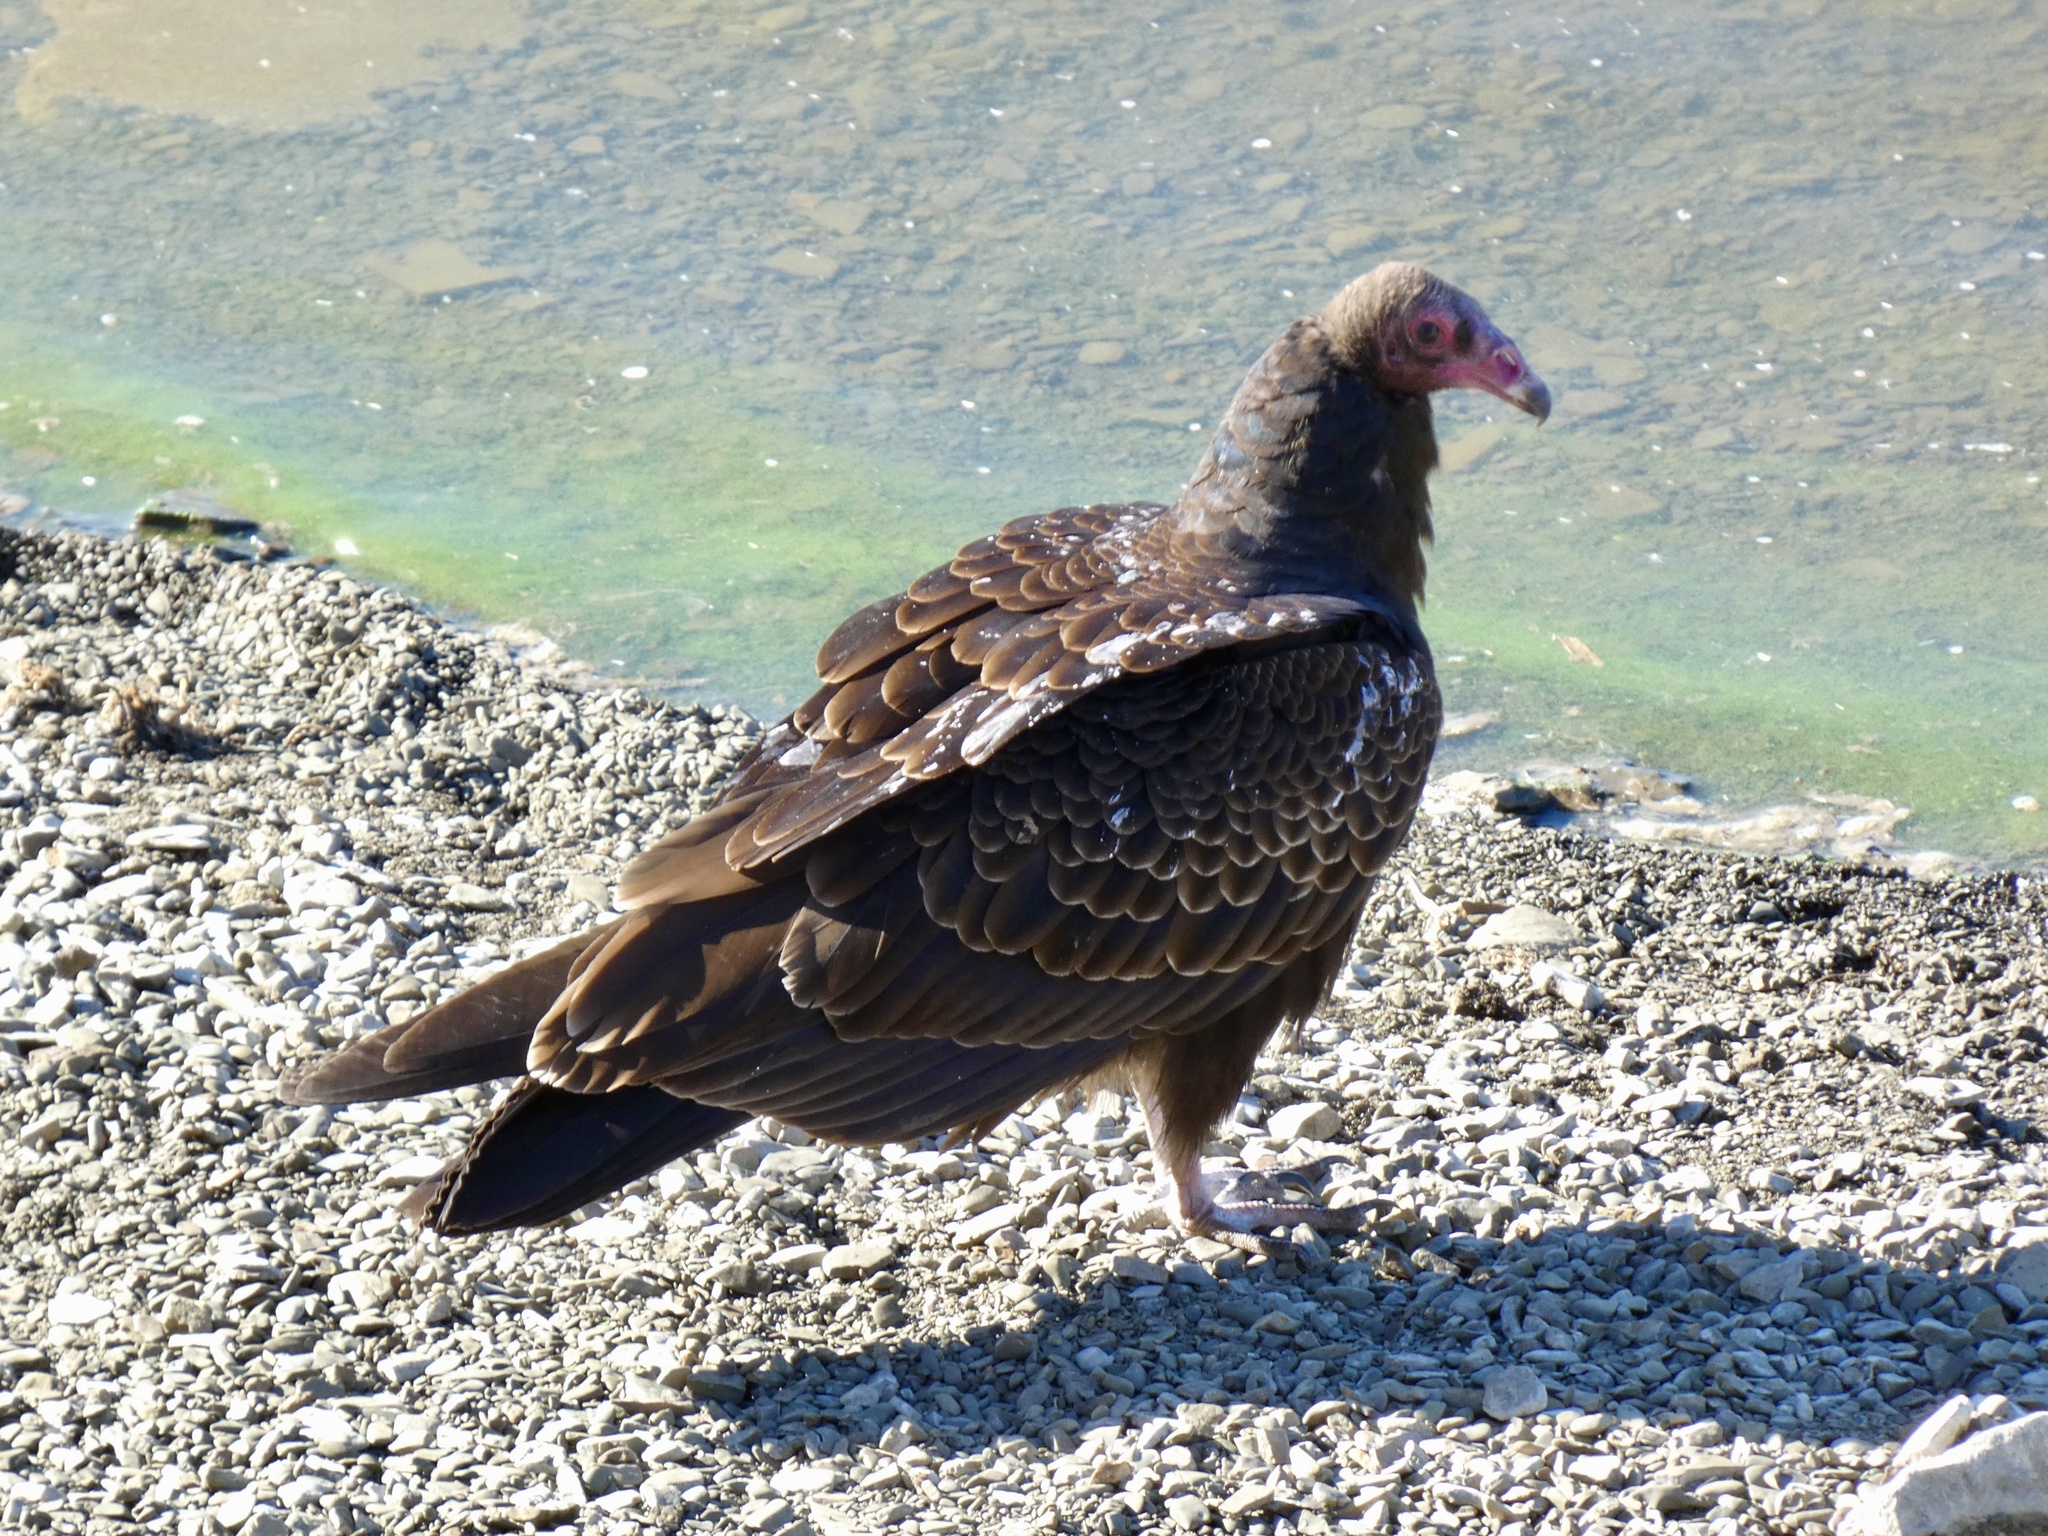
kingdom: Animalia
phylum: Chordata
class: Aves
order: Accipitriformes
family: Cathartidae
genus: Cathartes
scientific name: Cathartes aura
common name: Turkey vulture
